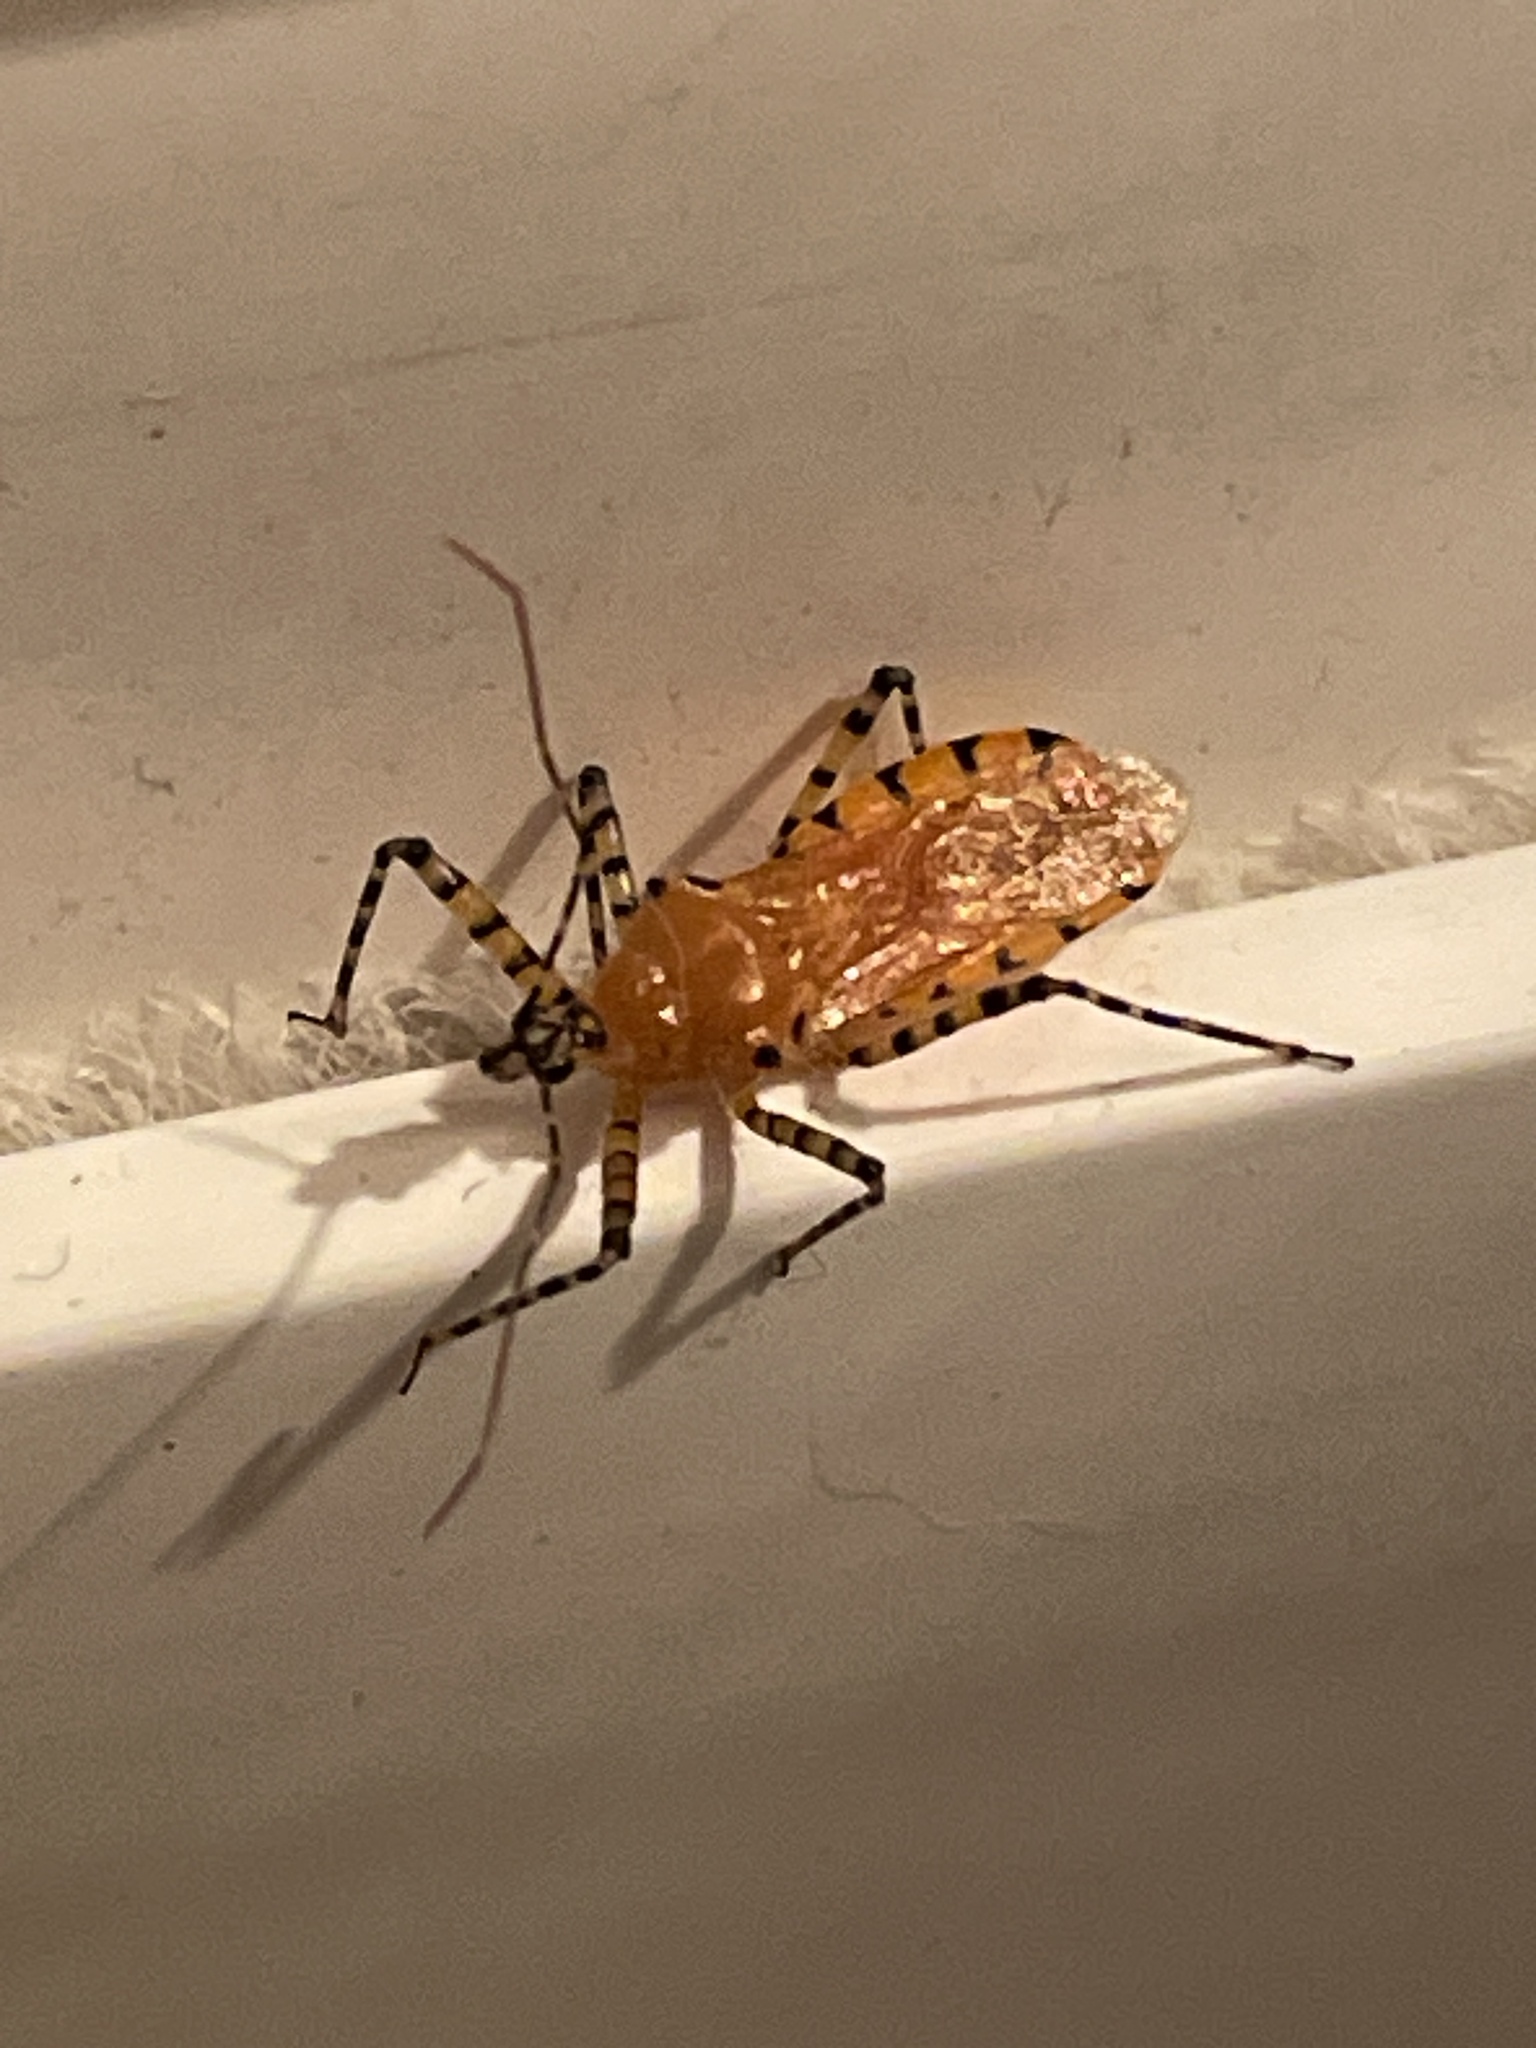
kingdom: Animalia
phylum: Arthropoda
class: Insecta
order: Hemiptera
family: Reduviidae
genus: Pselliopus
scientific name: Pselliopus barberi
